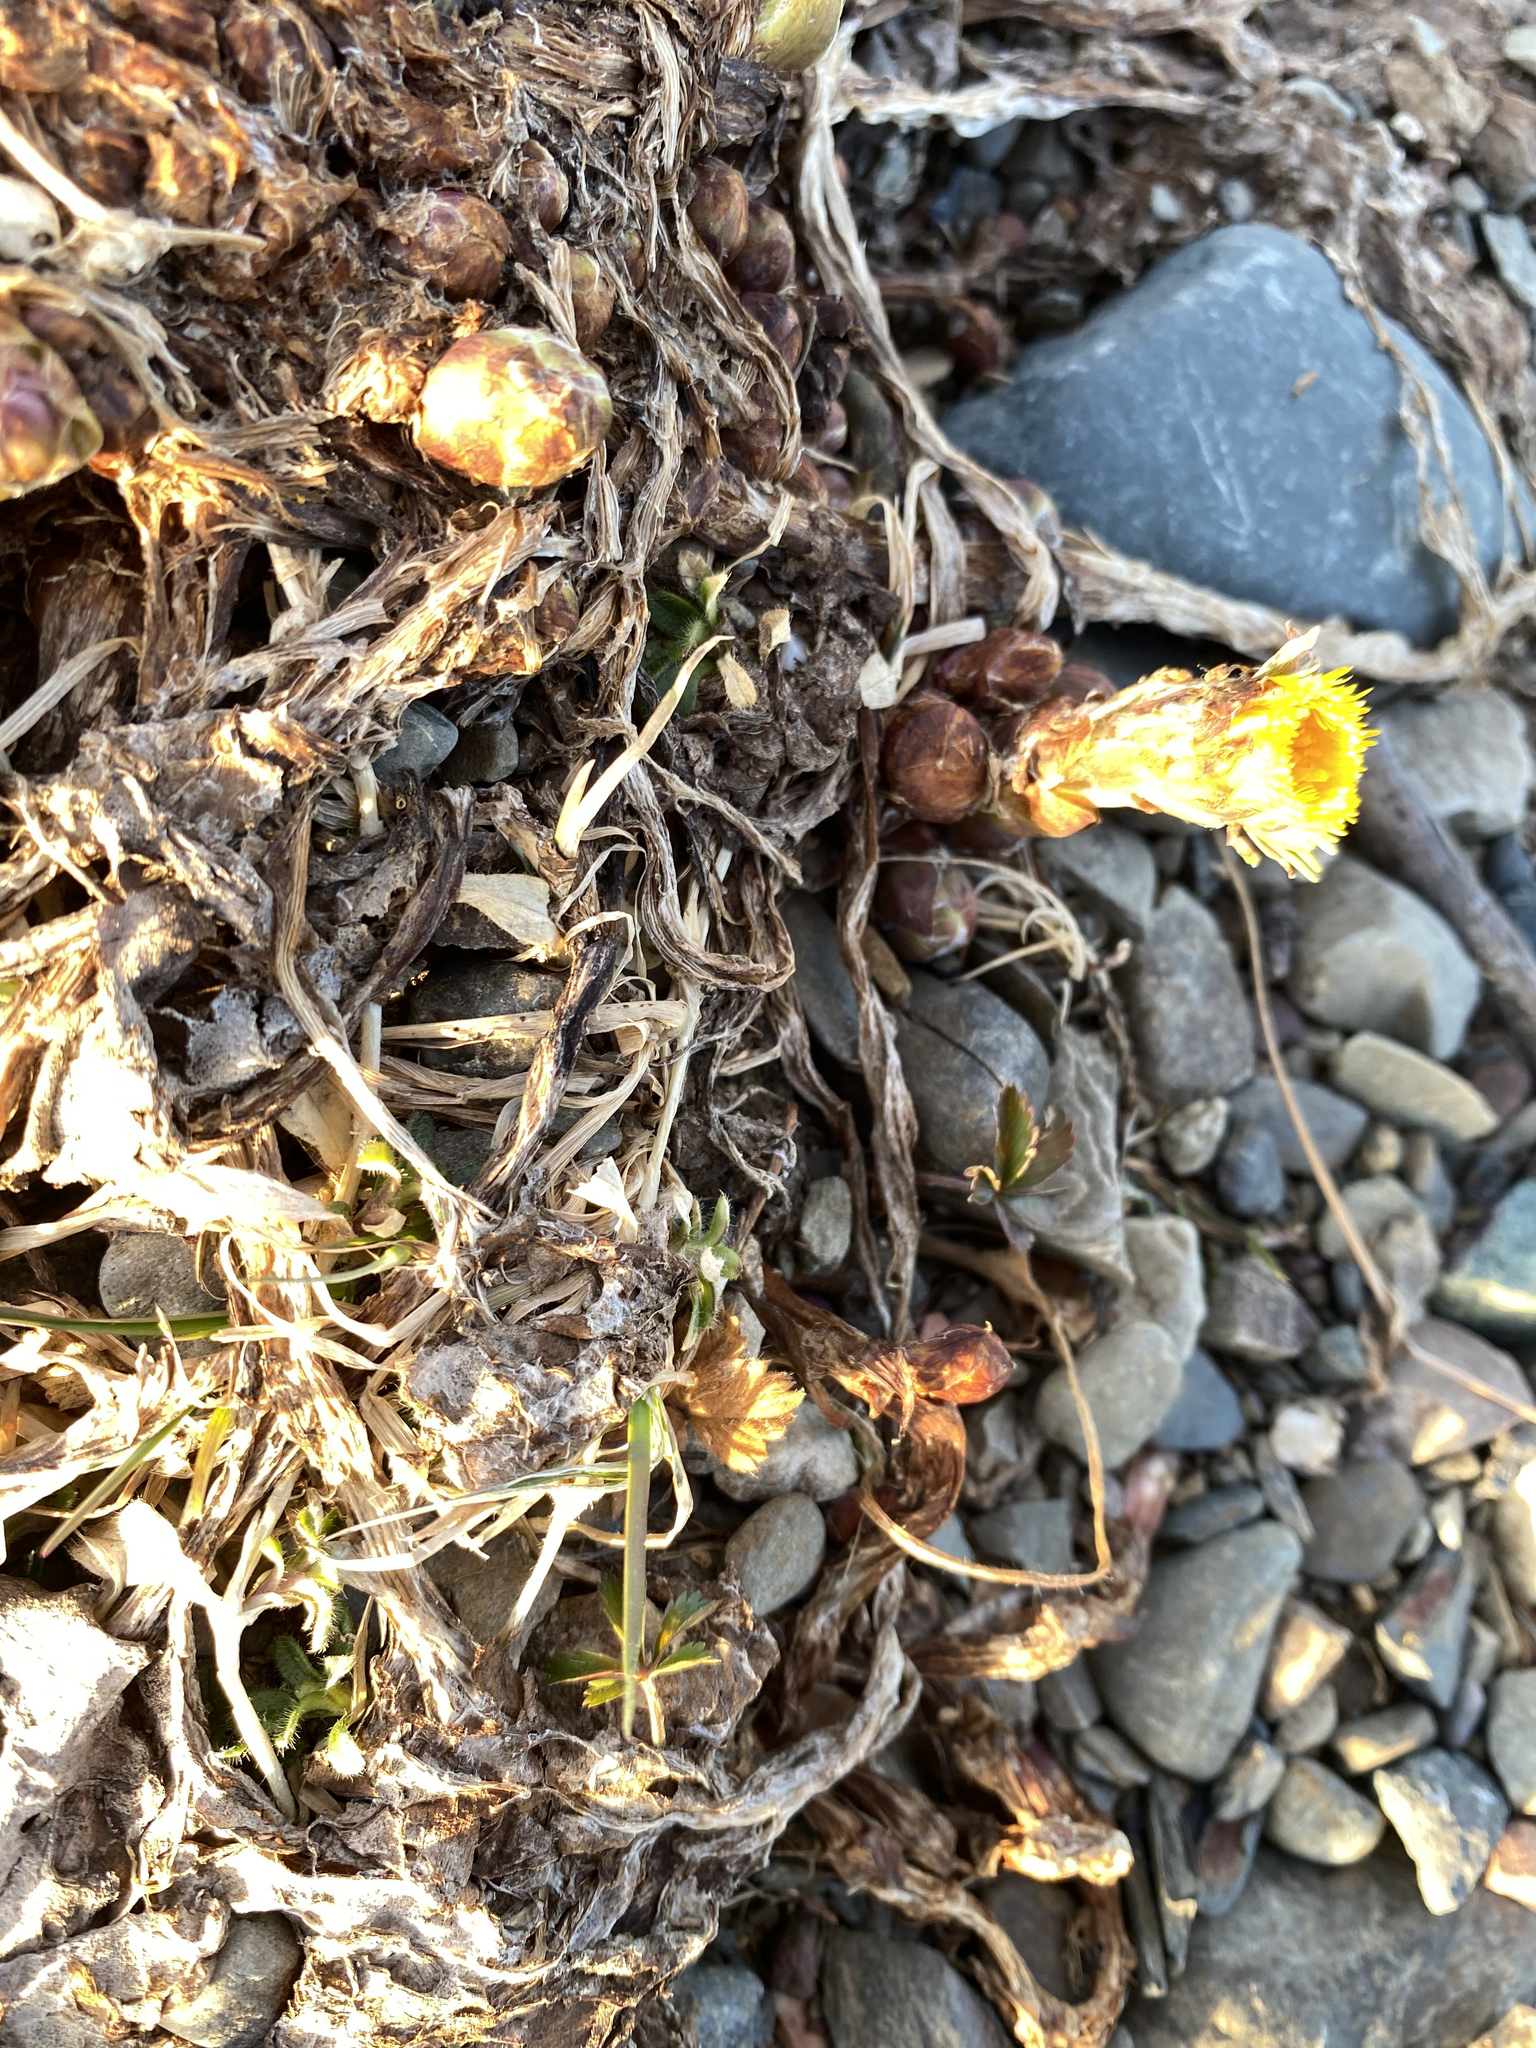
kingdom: Plantae
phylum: Tracheophyta
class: Magnoliopsida
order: Asterales
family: Asteraceae
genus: Tussilago
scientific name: Tussilago farfara
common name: Coltsfoot
